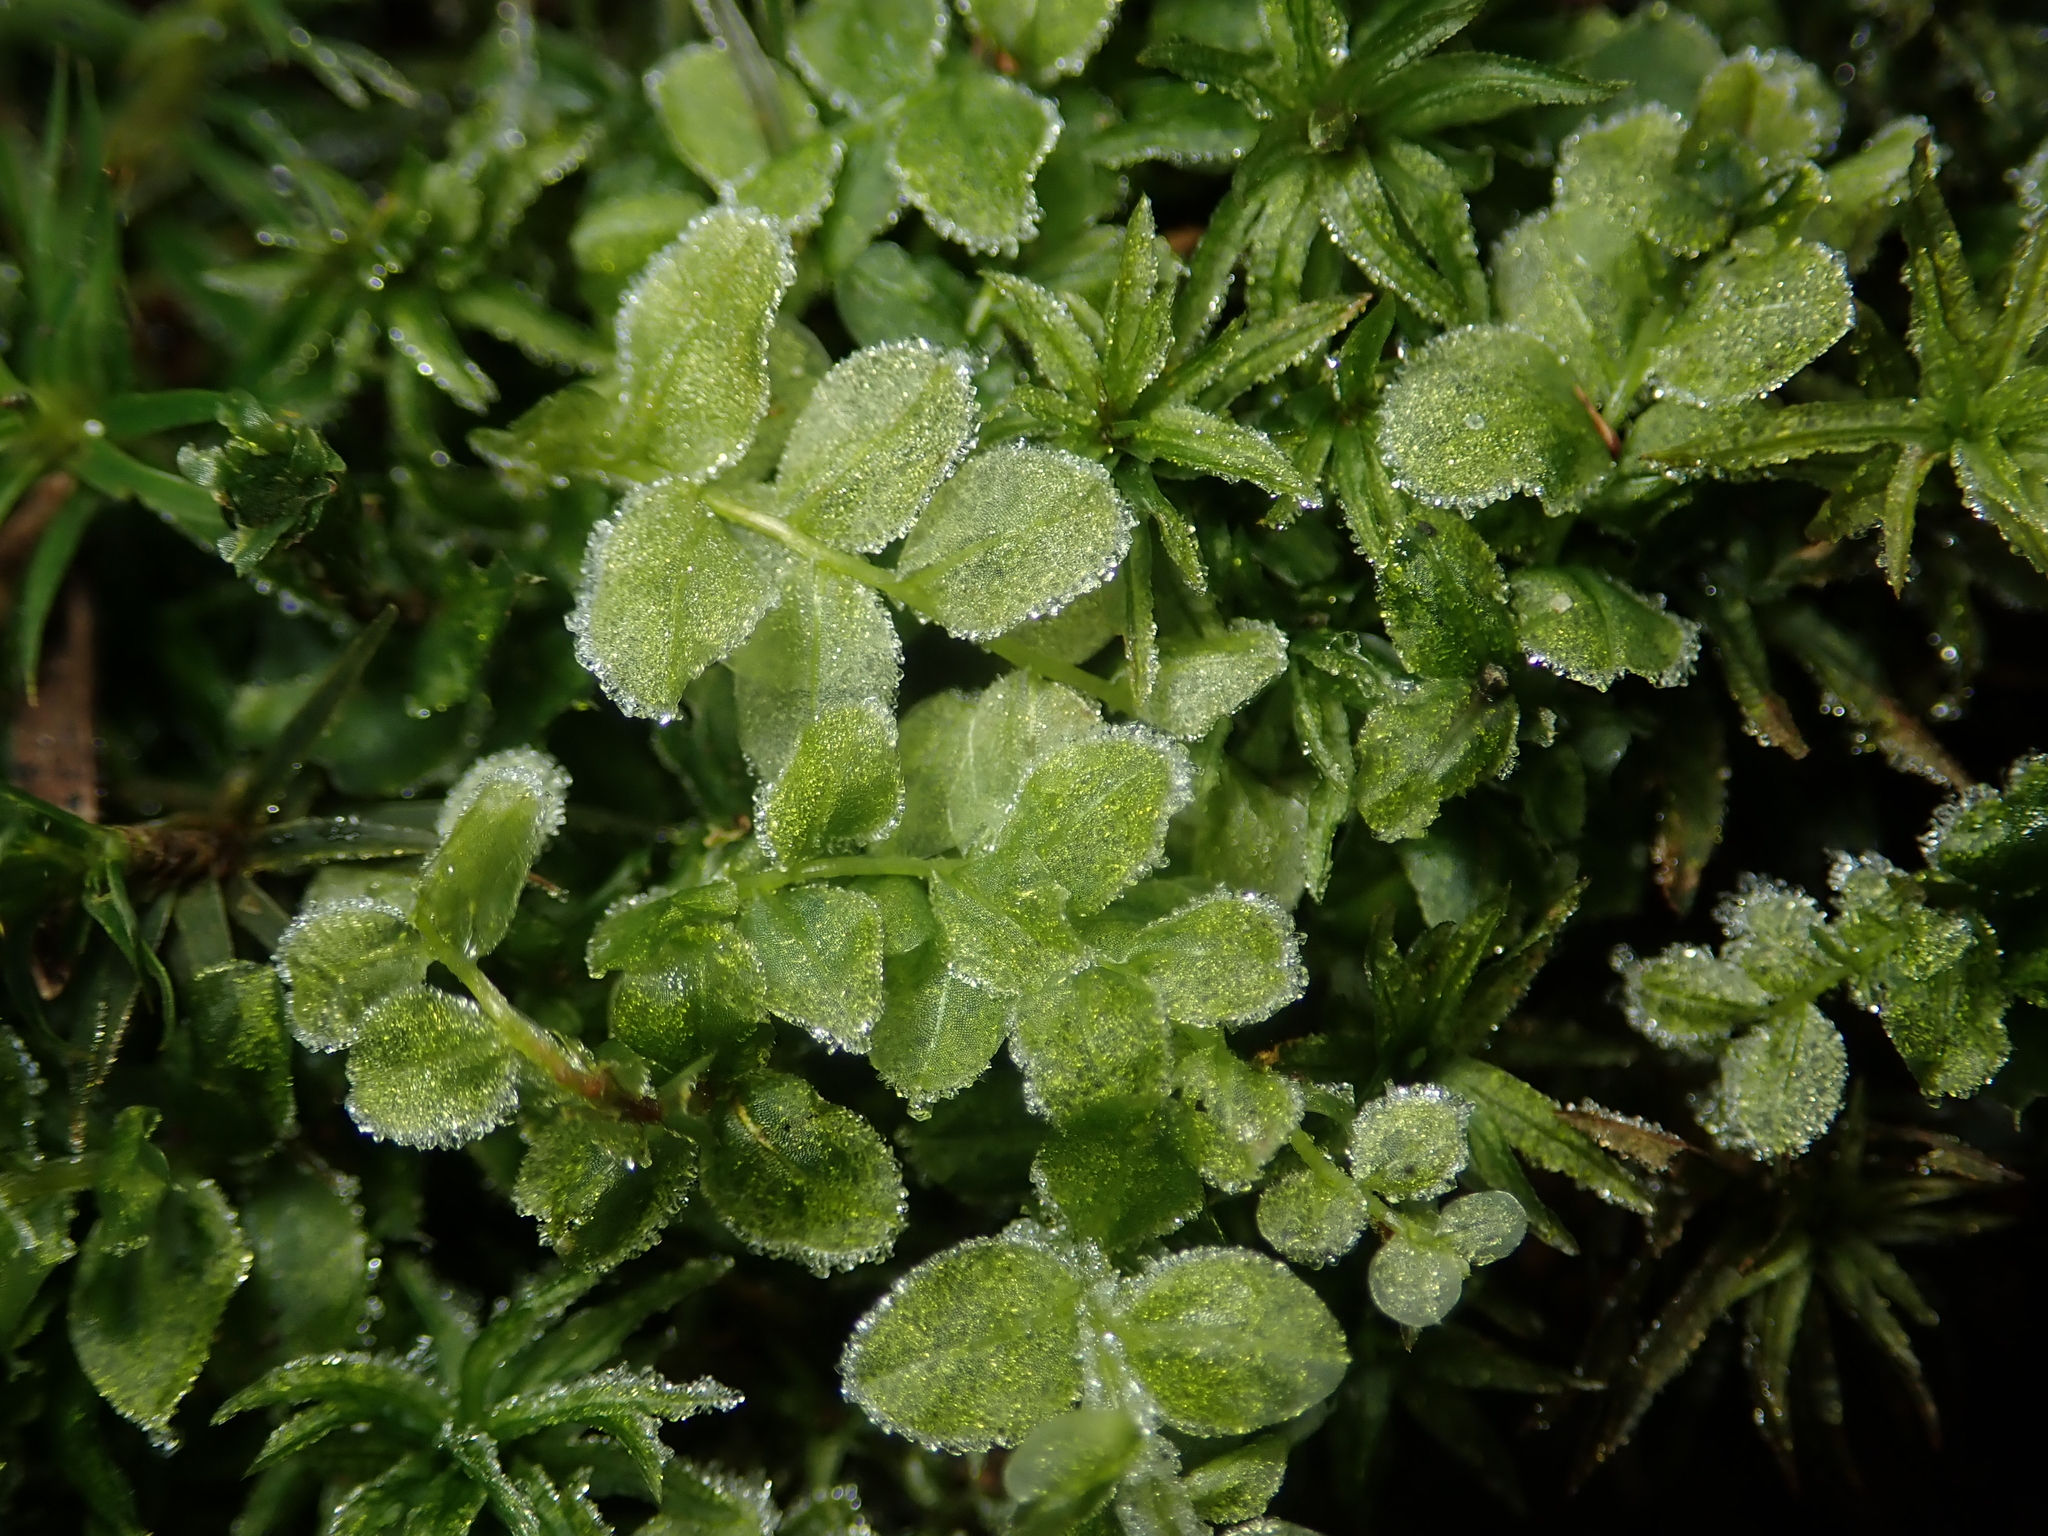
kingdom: Plantae
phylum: Bryophyta
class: Bryopsida
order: Bryales
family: Mniaceae
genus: Plagiomnium
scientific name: Plagiomnium cuspidatum
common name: Woodsy leafy moss
